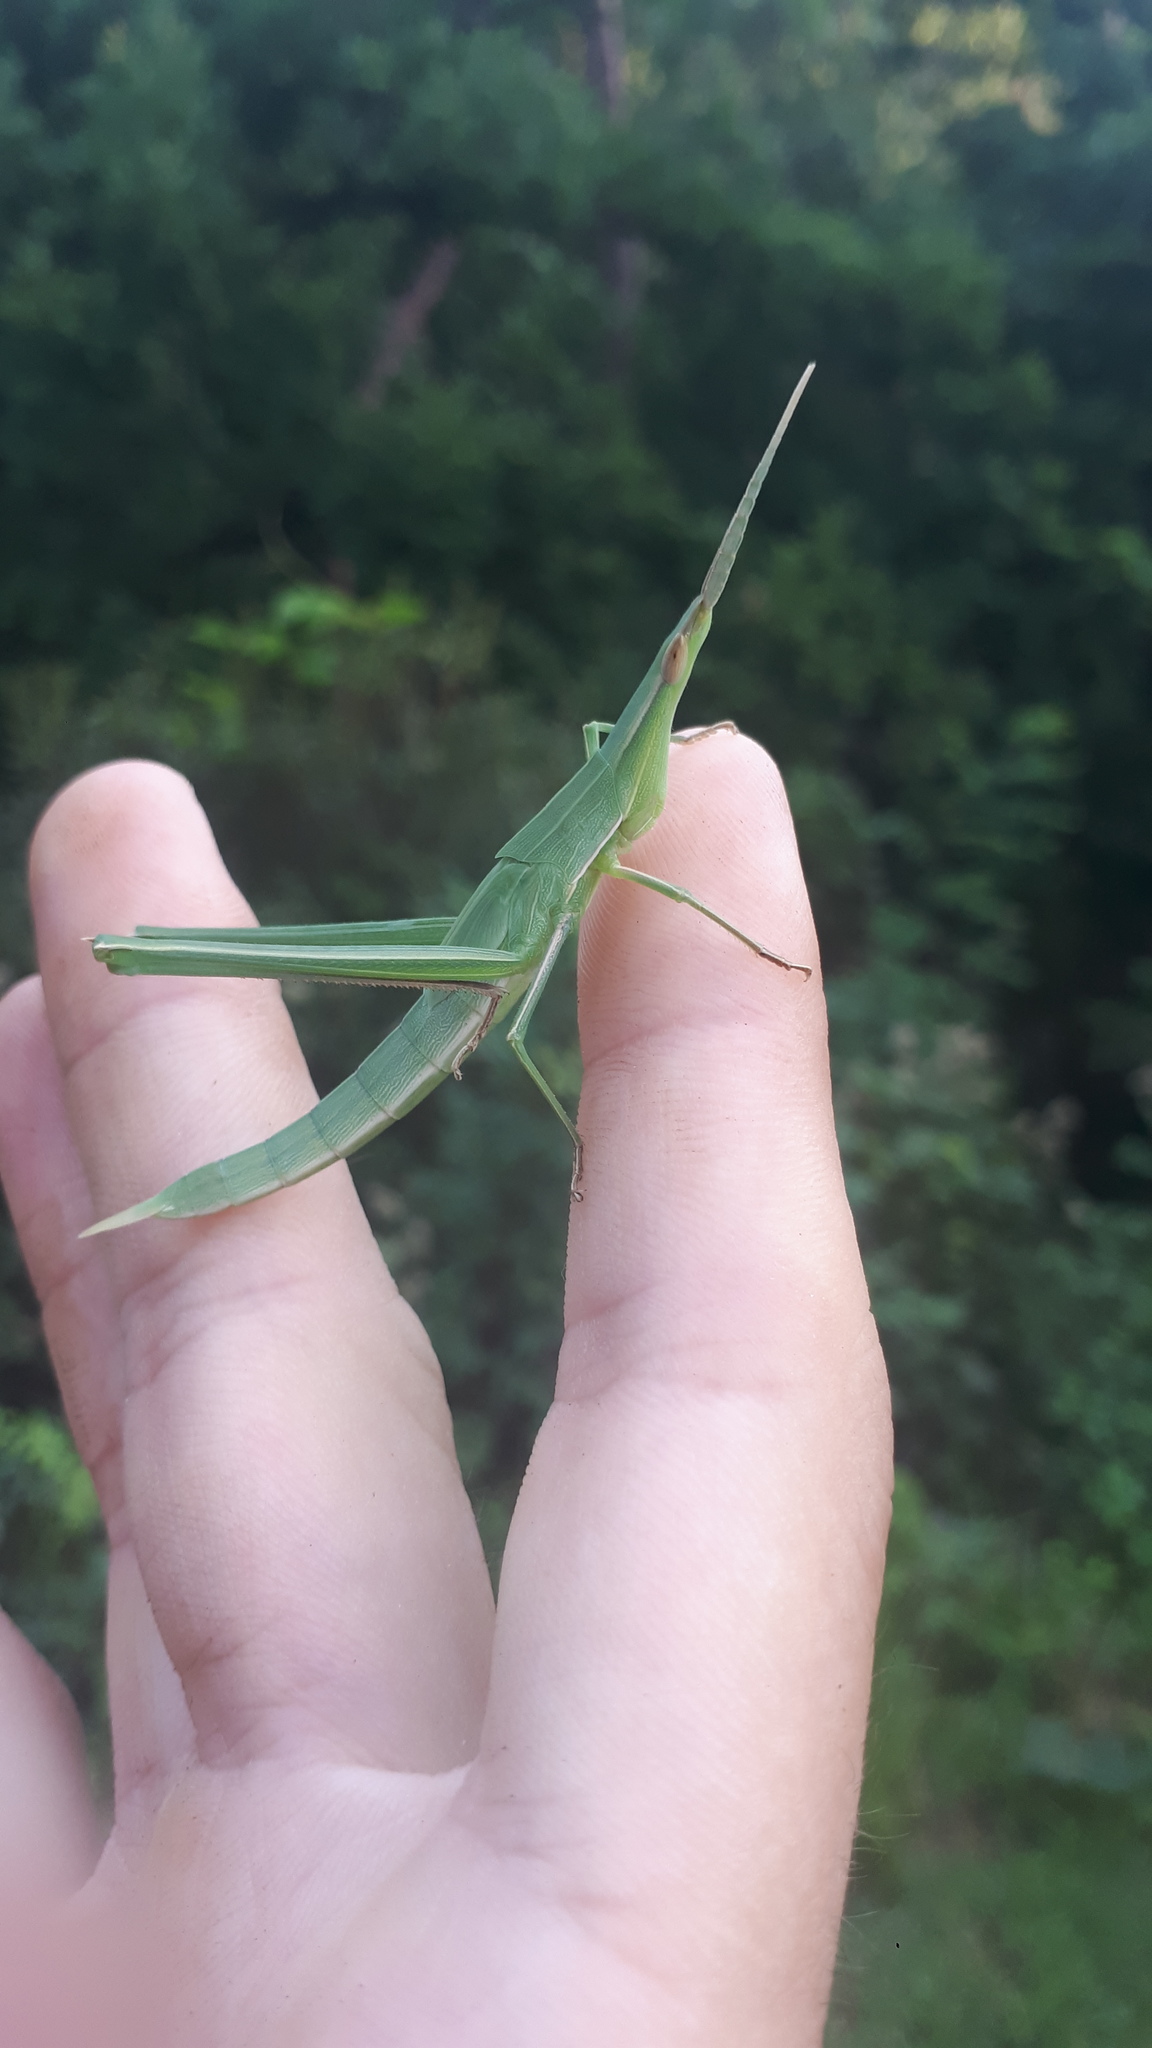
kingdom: Animalia
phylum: Arthropoda
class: Insecta
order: Orthoptera
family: Acrididae
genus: Acrida
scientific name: Acrida cinerea
